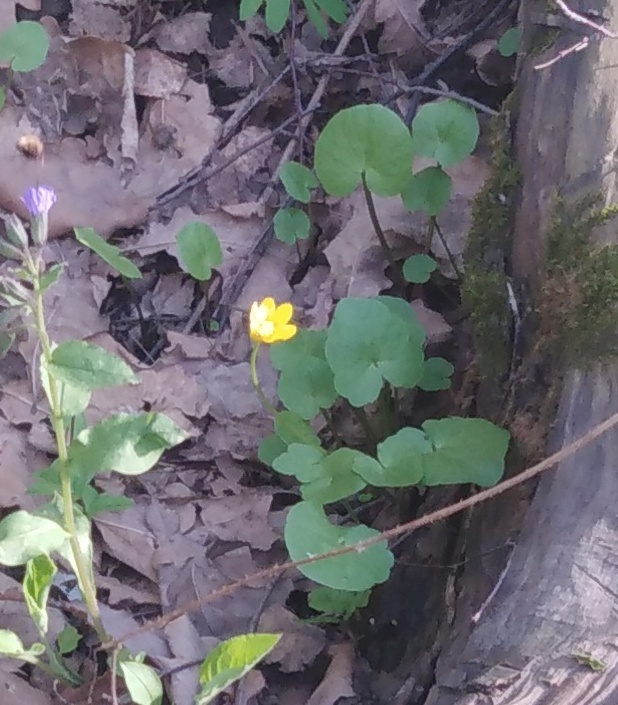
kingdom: Plantae
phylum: Tracheophyta
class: Magnoliopsida
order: Ranunculales
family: Ranunculaceae
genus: Ficaria
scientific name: Ficaria verna
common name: Lesser celandine
